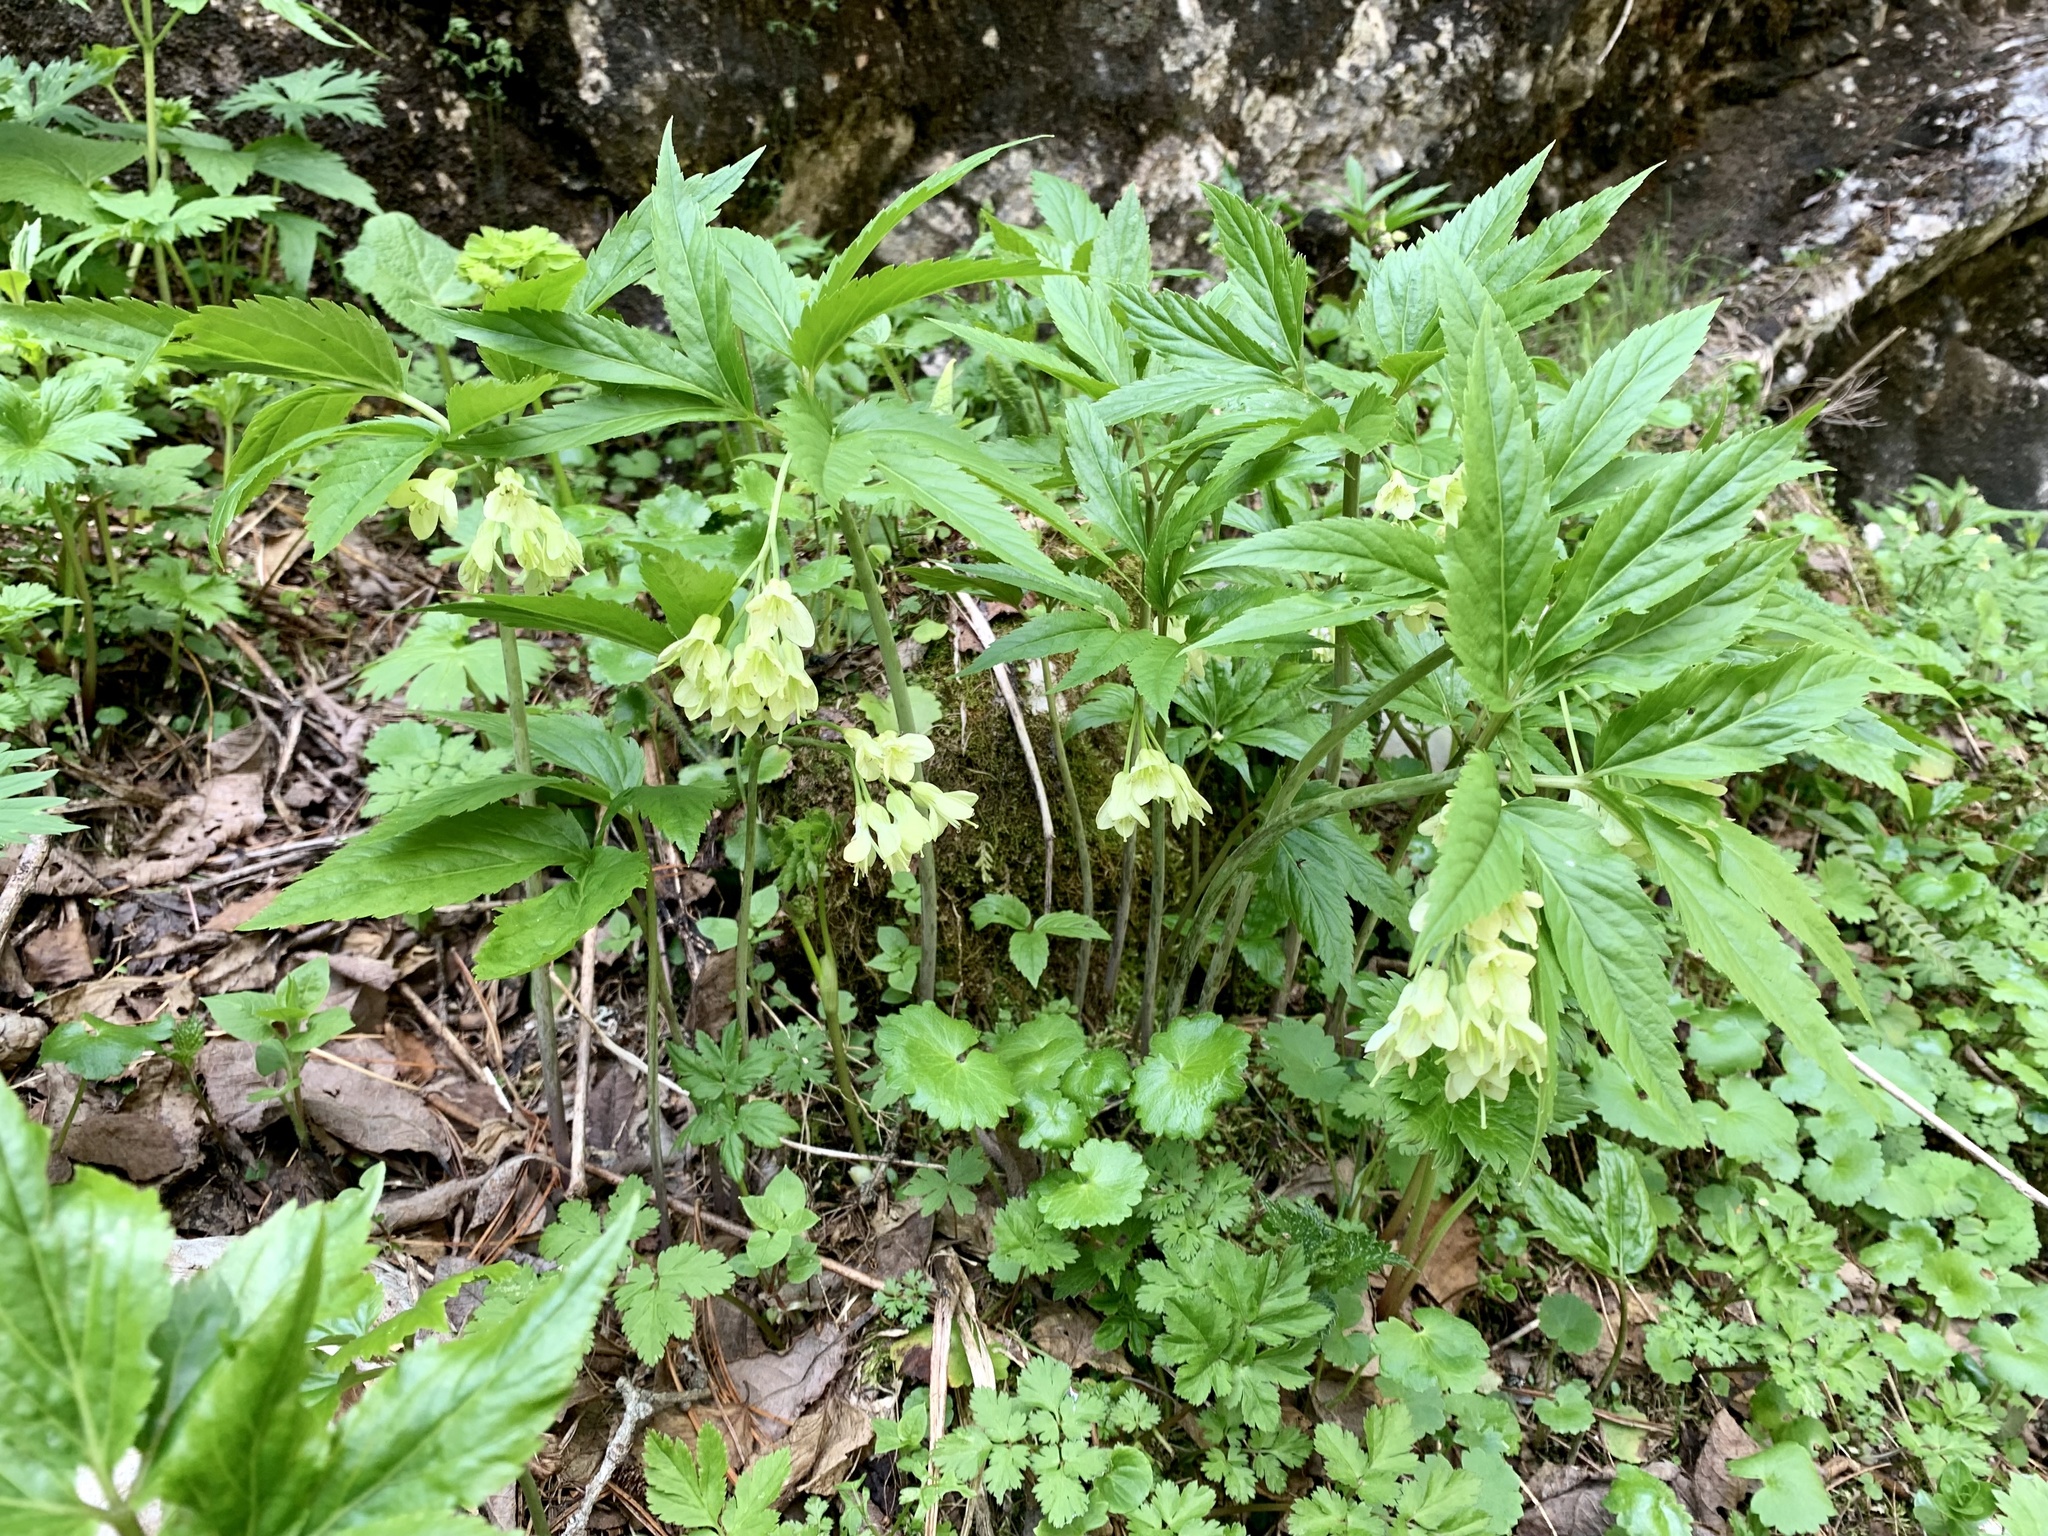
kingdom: Plantae
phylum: Tracheophyta
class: Magnoliopsida
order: Brassicales
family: Brassicaceae
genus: Cardamine
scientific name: Cardamine enneaphyllos
